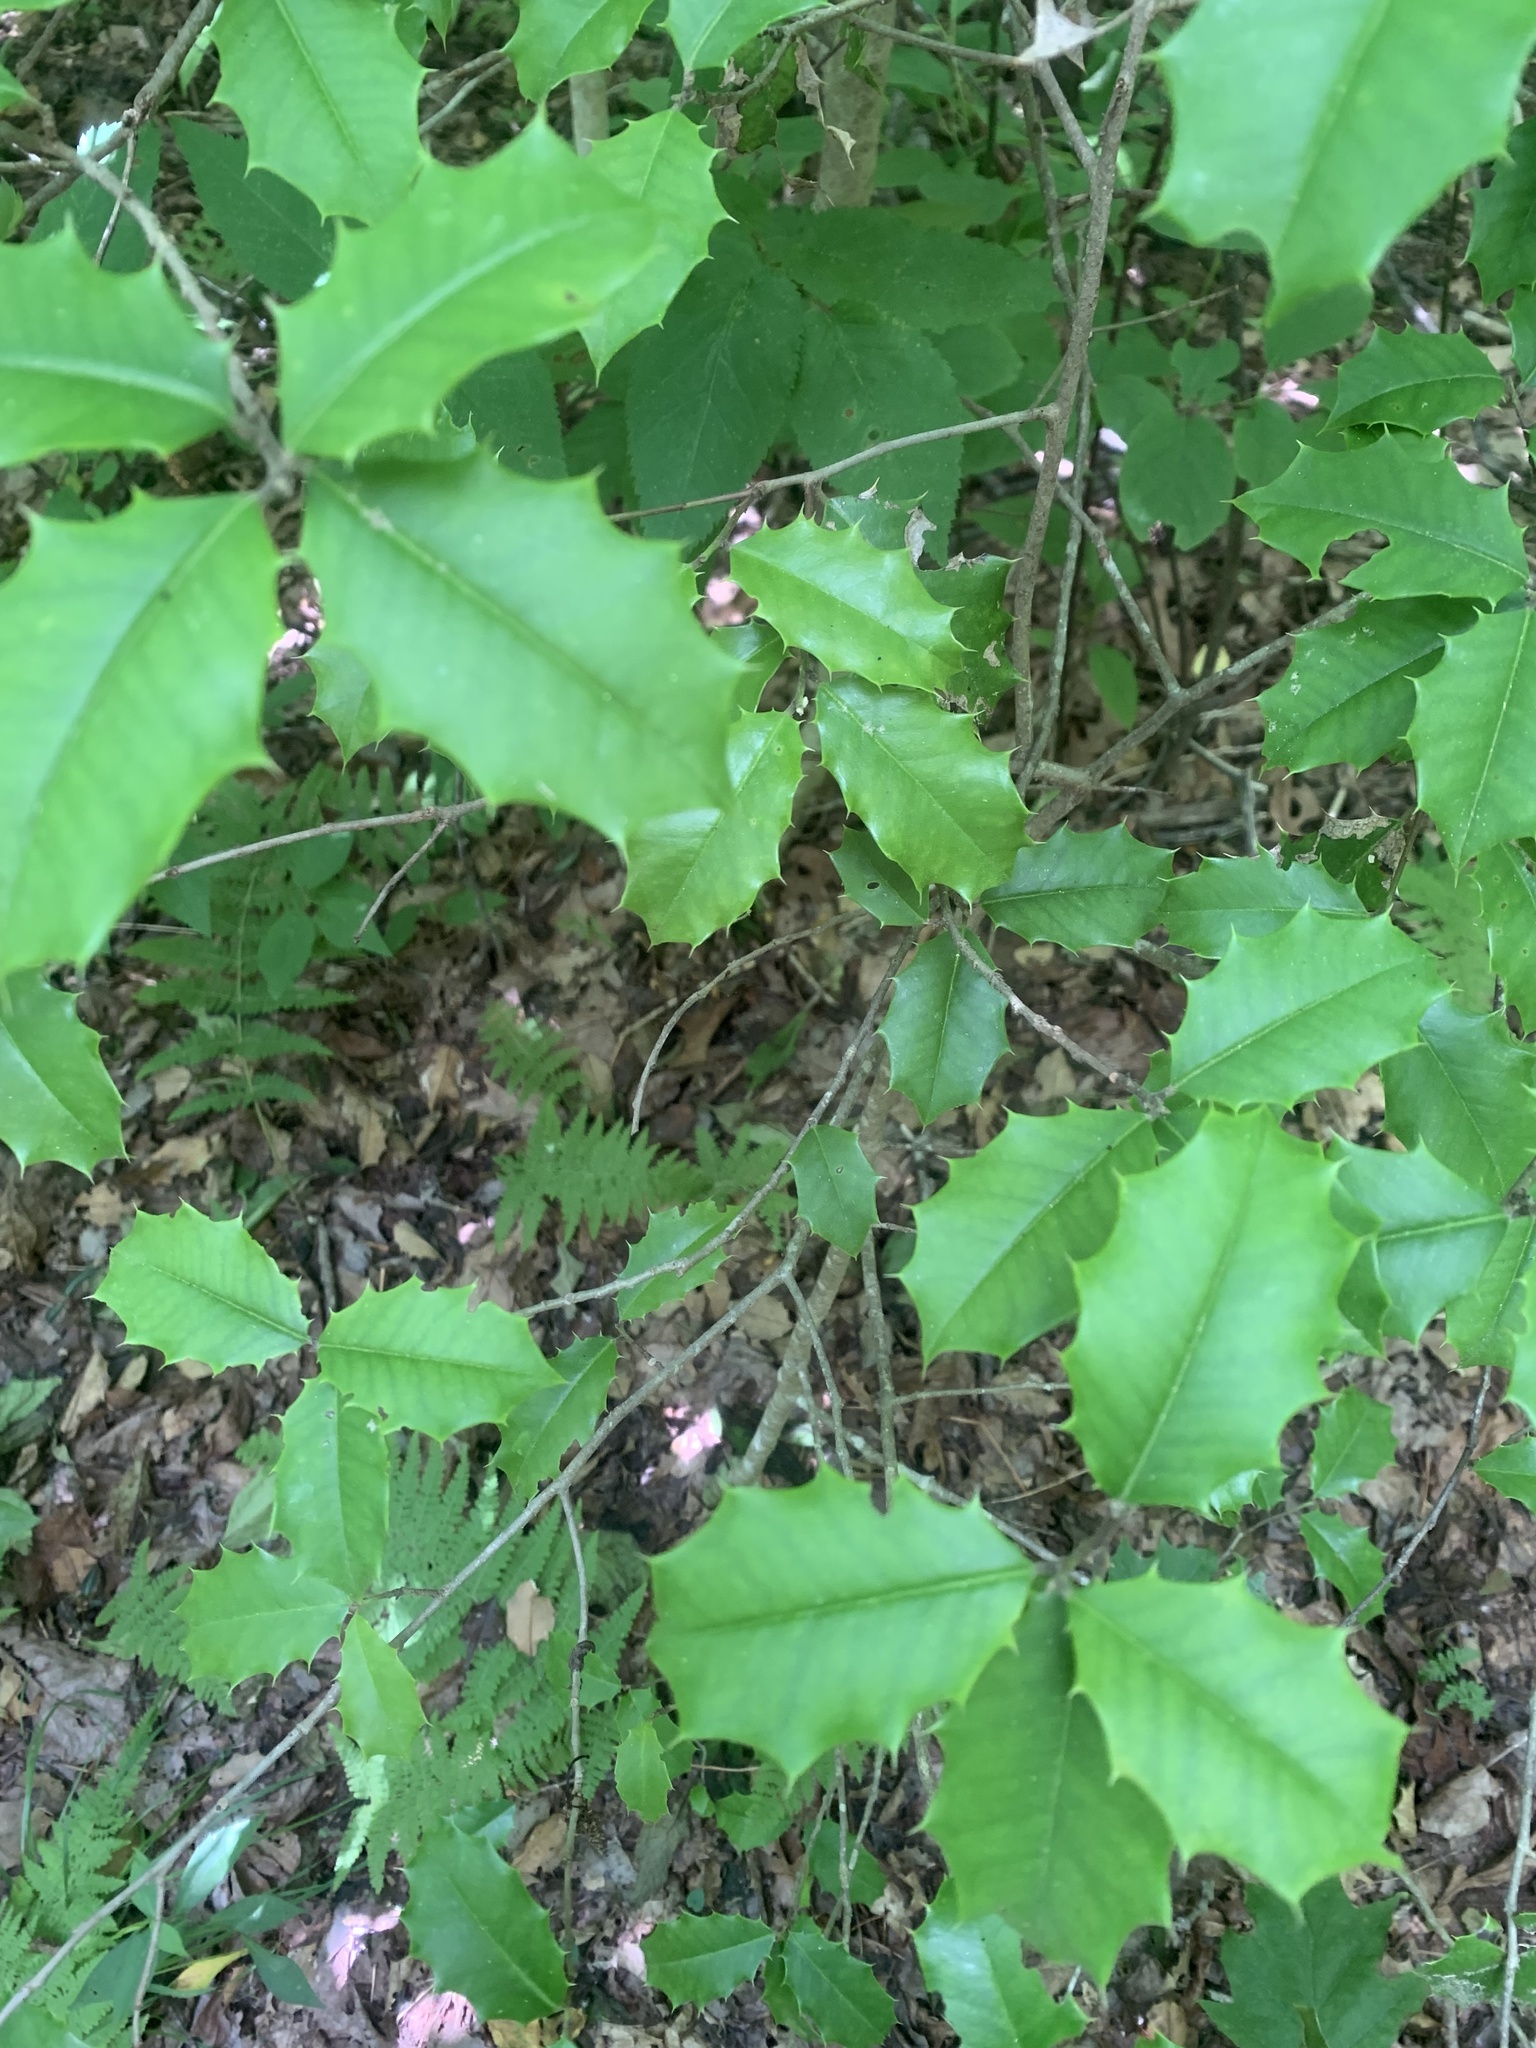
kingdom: Plantae
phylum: Tracheophyta
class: Magnoliopsida
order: Aquifoliales
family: Aquifoliaceae
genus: Ilex
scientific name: Ilex opaca
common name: American holly
